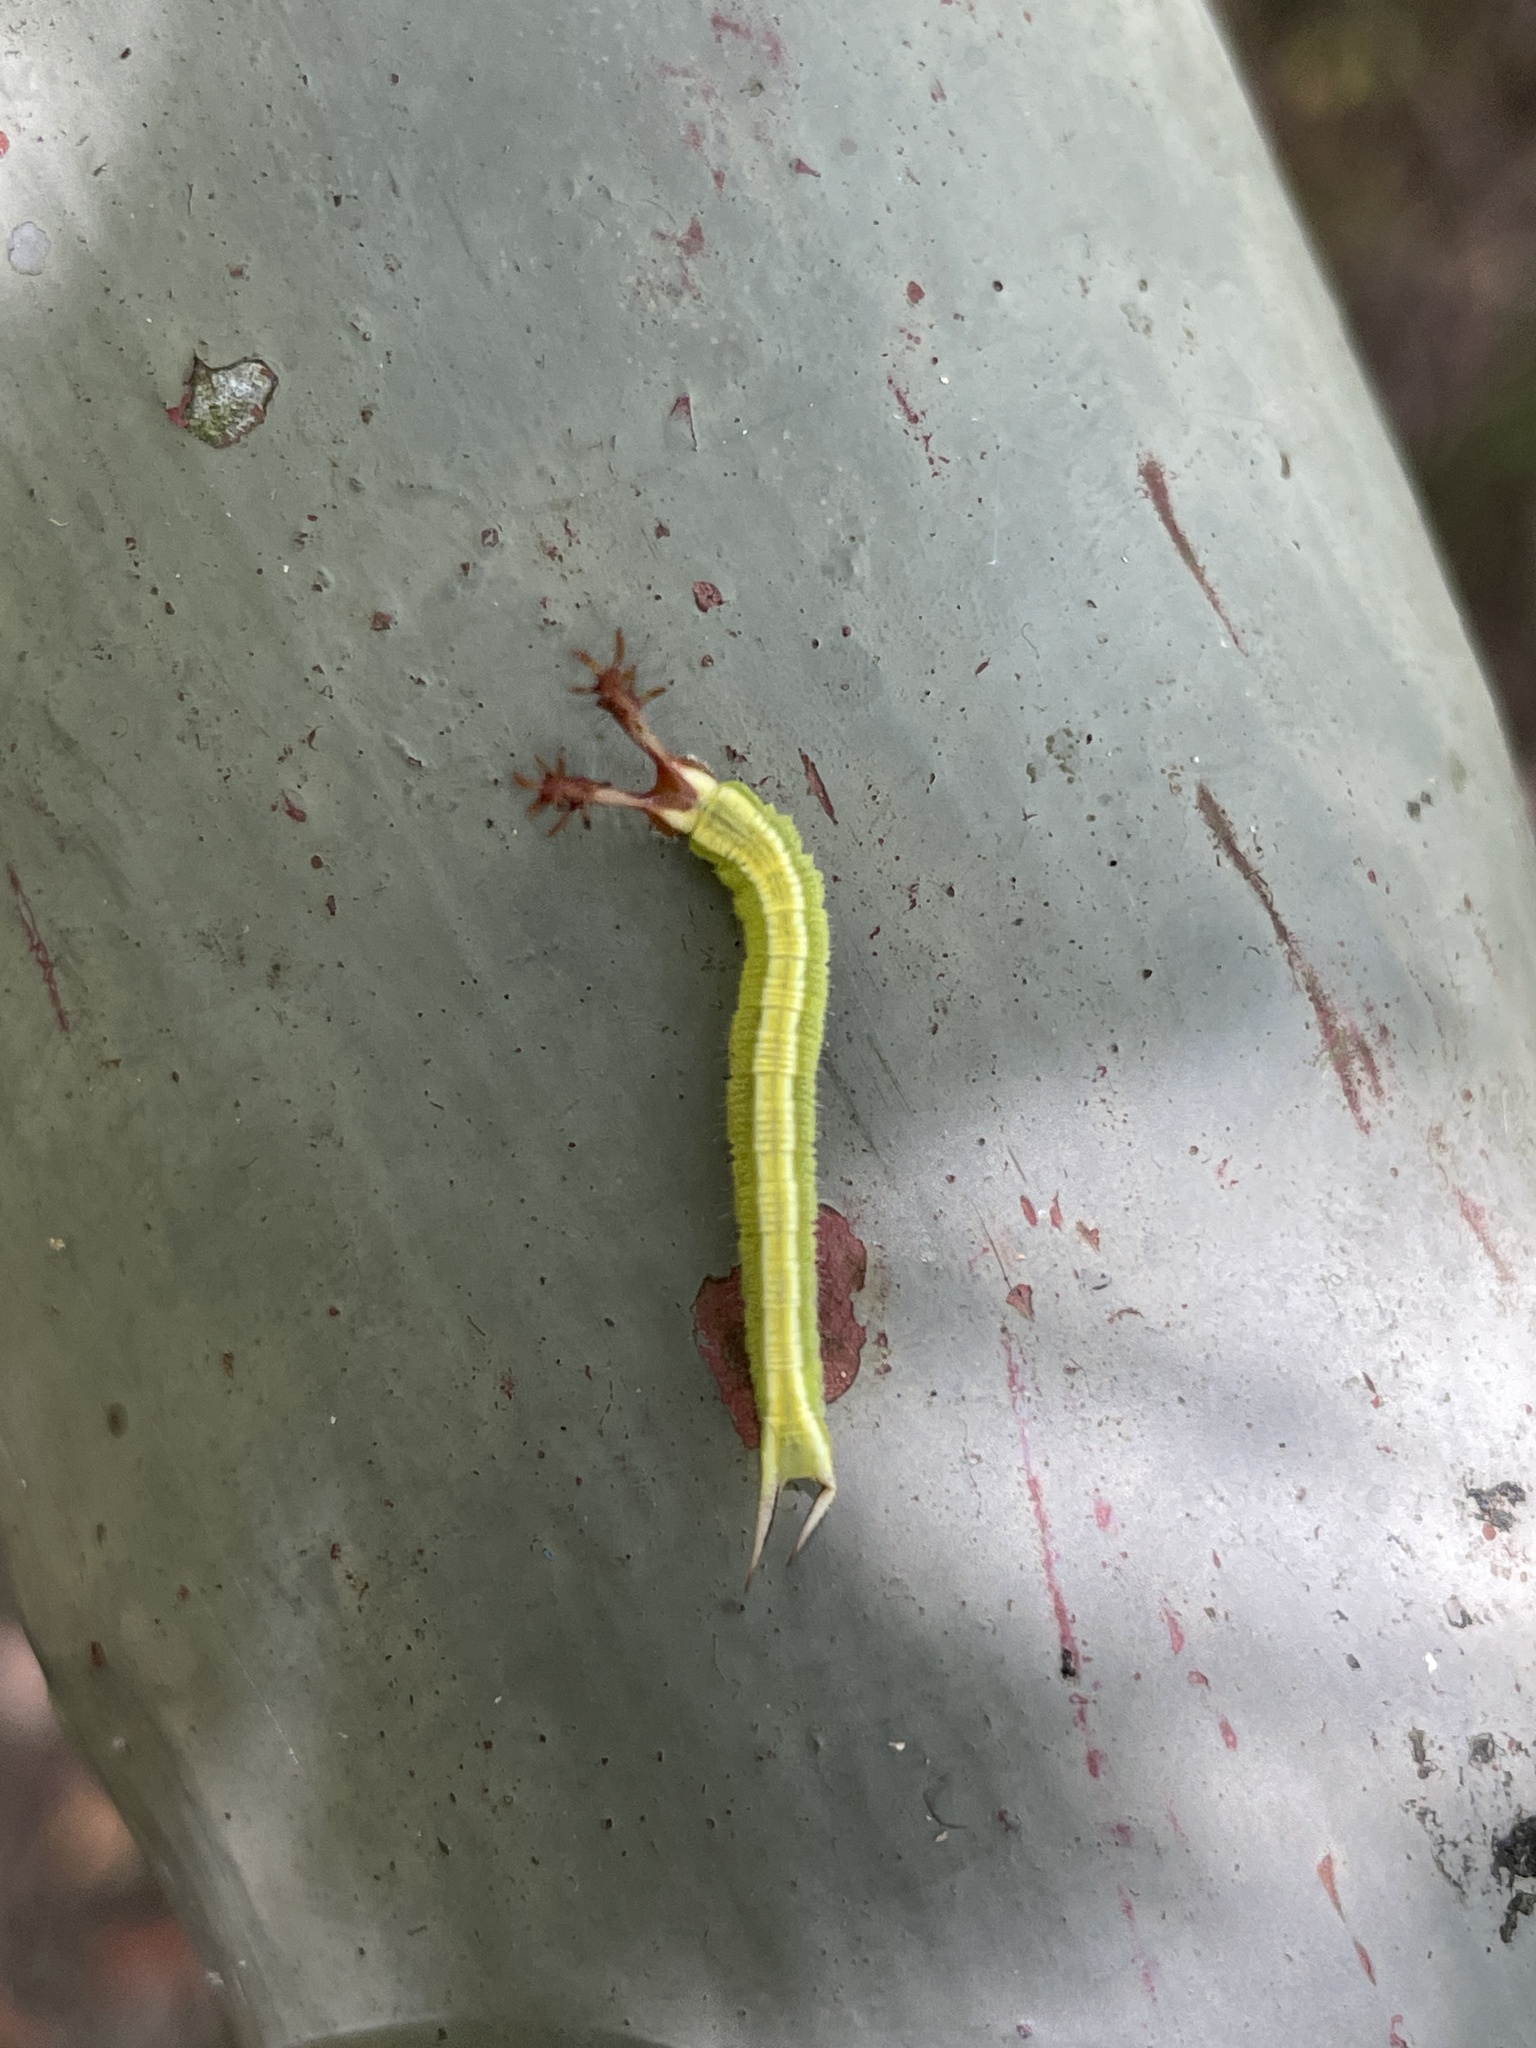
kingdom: Animalia
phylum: Arthropoda
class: Insecta
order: Lepidoptera
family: Nymphalidae
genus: Apatura
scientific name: Apatura Rohana spec
